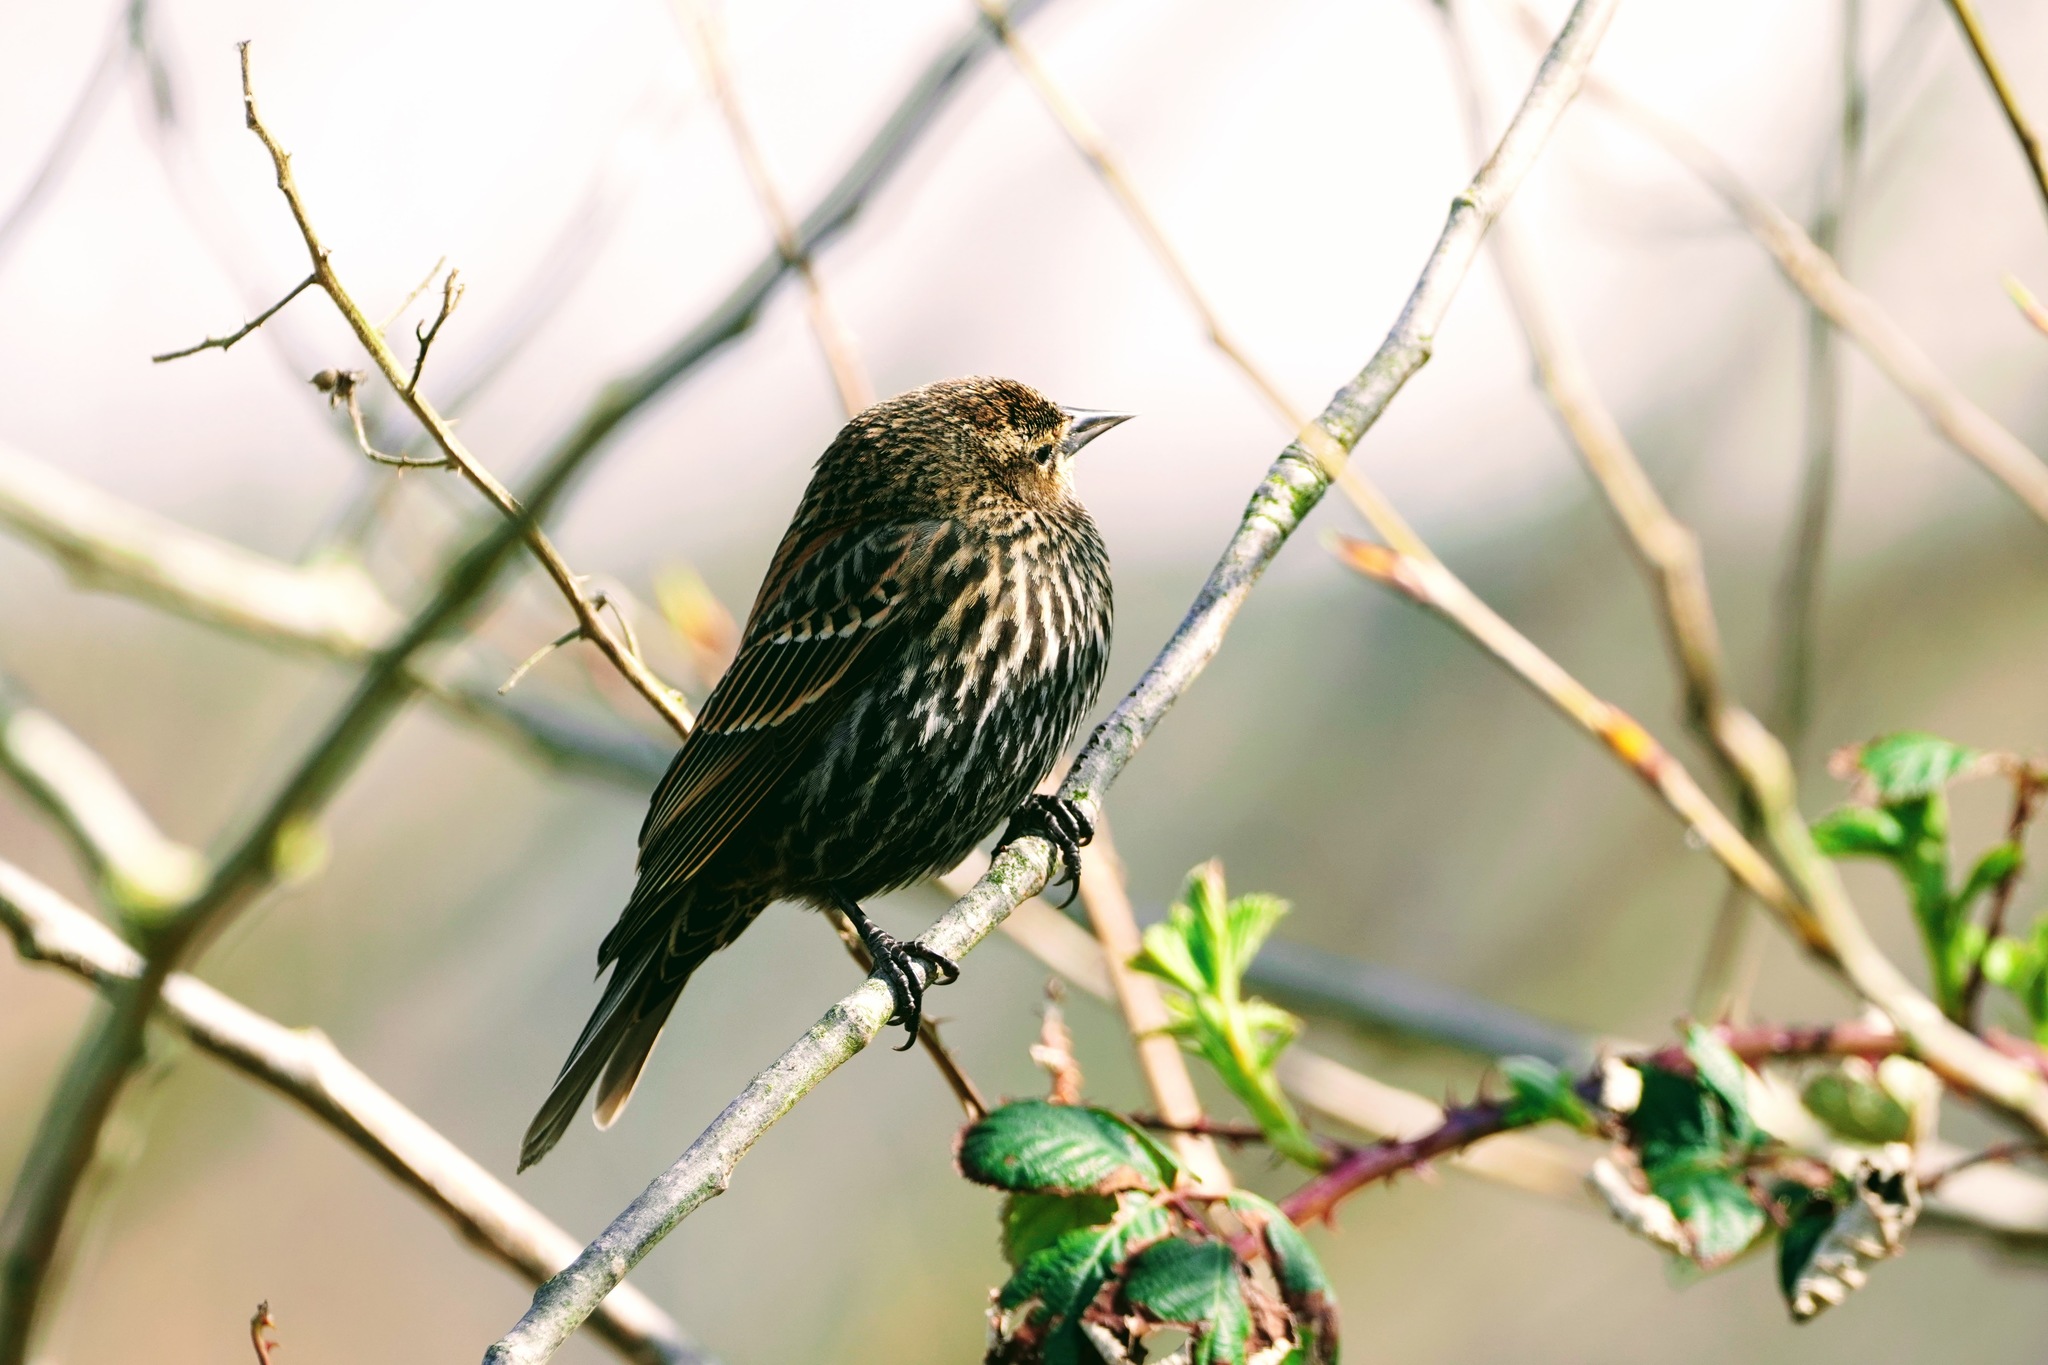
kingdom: Animalia
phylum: Chordata
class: Aves
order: Passeriformes
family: Icteridae
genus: Agelaius
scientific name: Agelaius phoeniceus
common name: Red-winged blackbird
